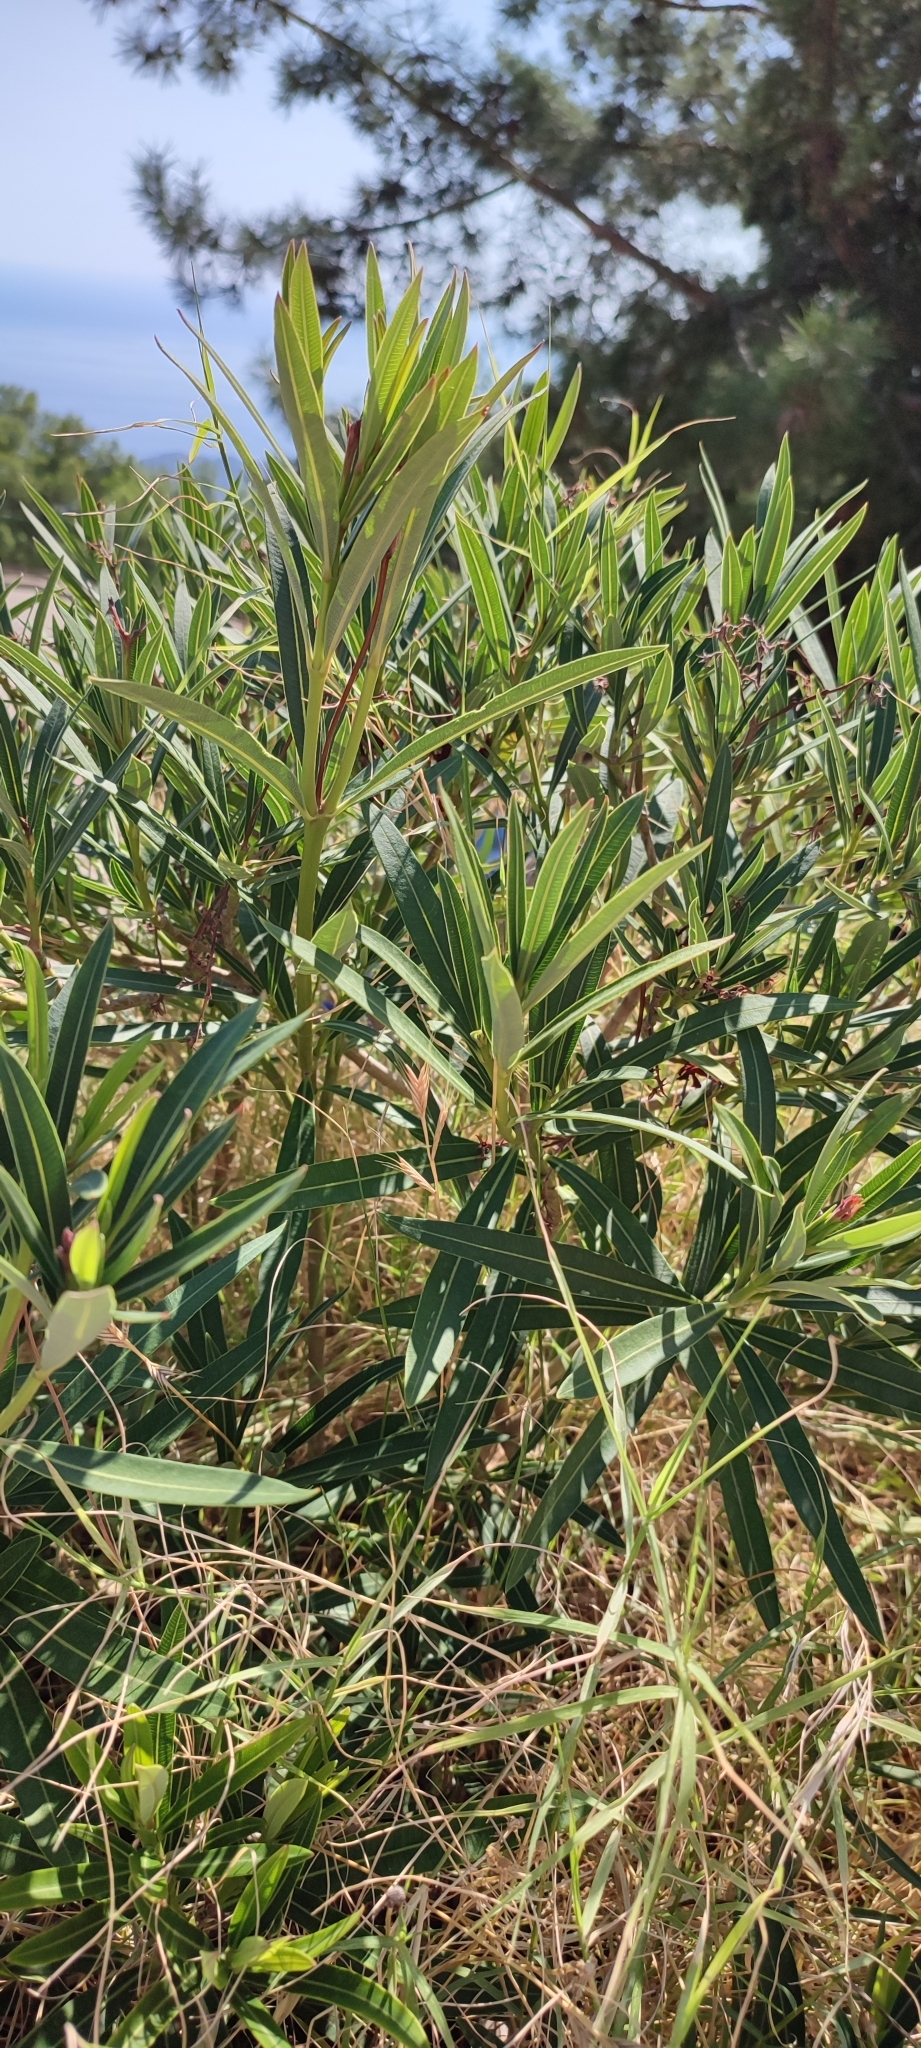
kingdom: Plantae
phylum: Tracheophyta
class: Magnoliopsida
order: Gentianales
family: Apocynaceae
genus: Nerium
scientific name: Nerium oleander
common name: Oleander
